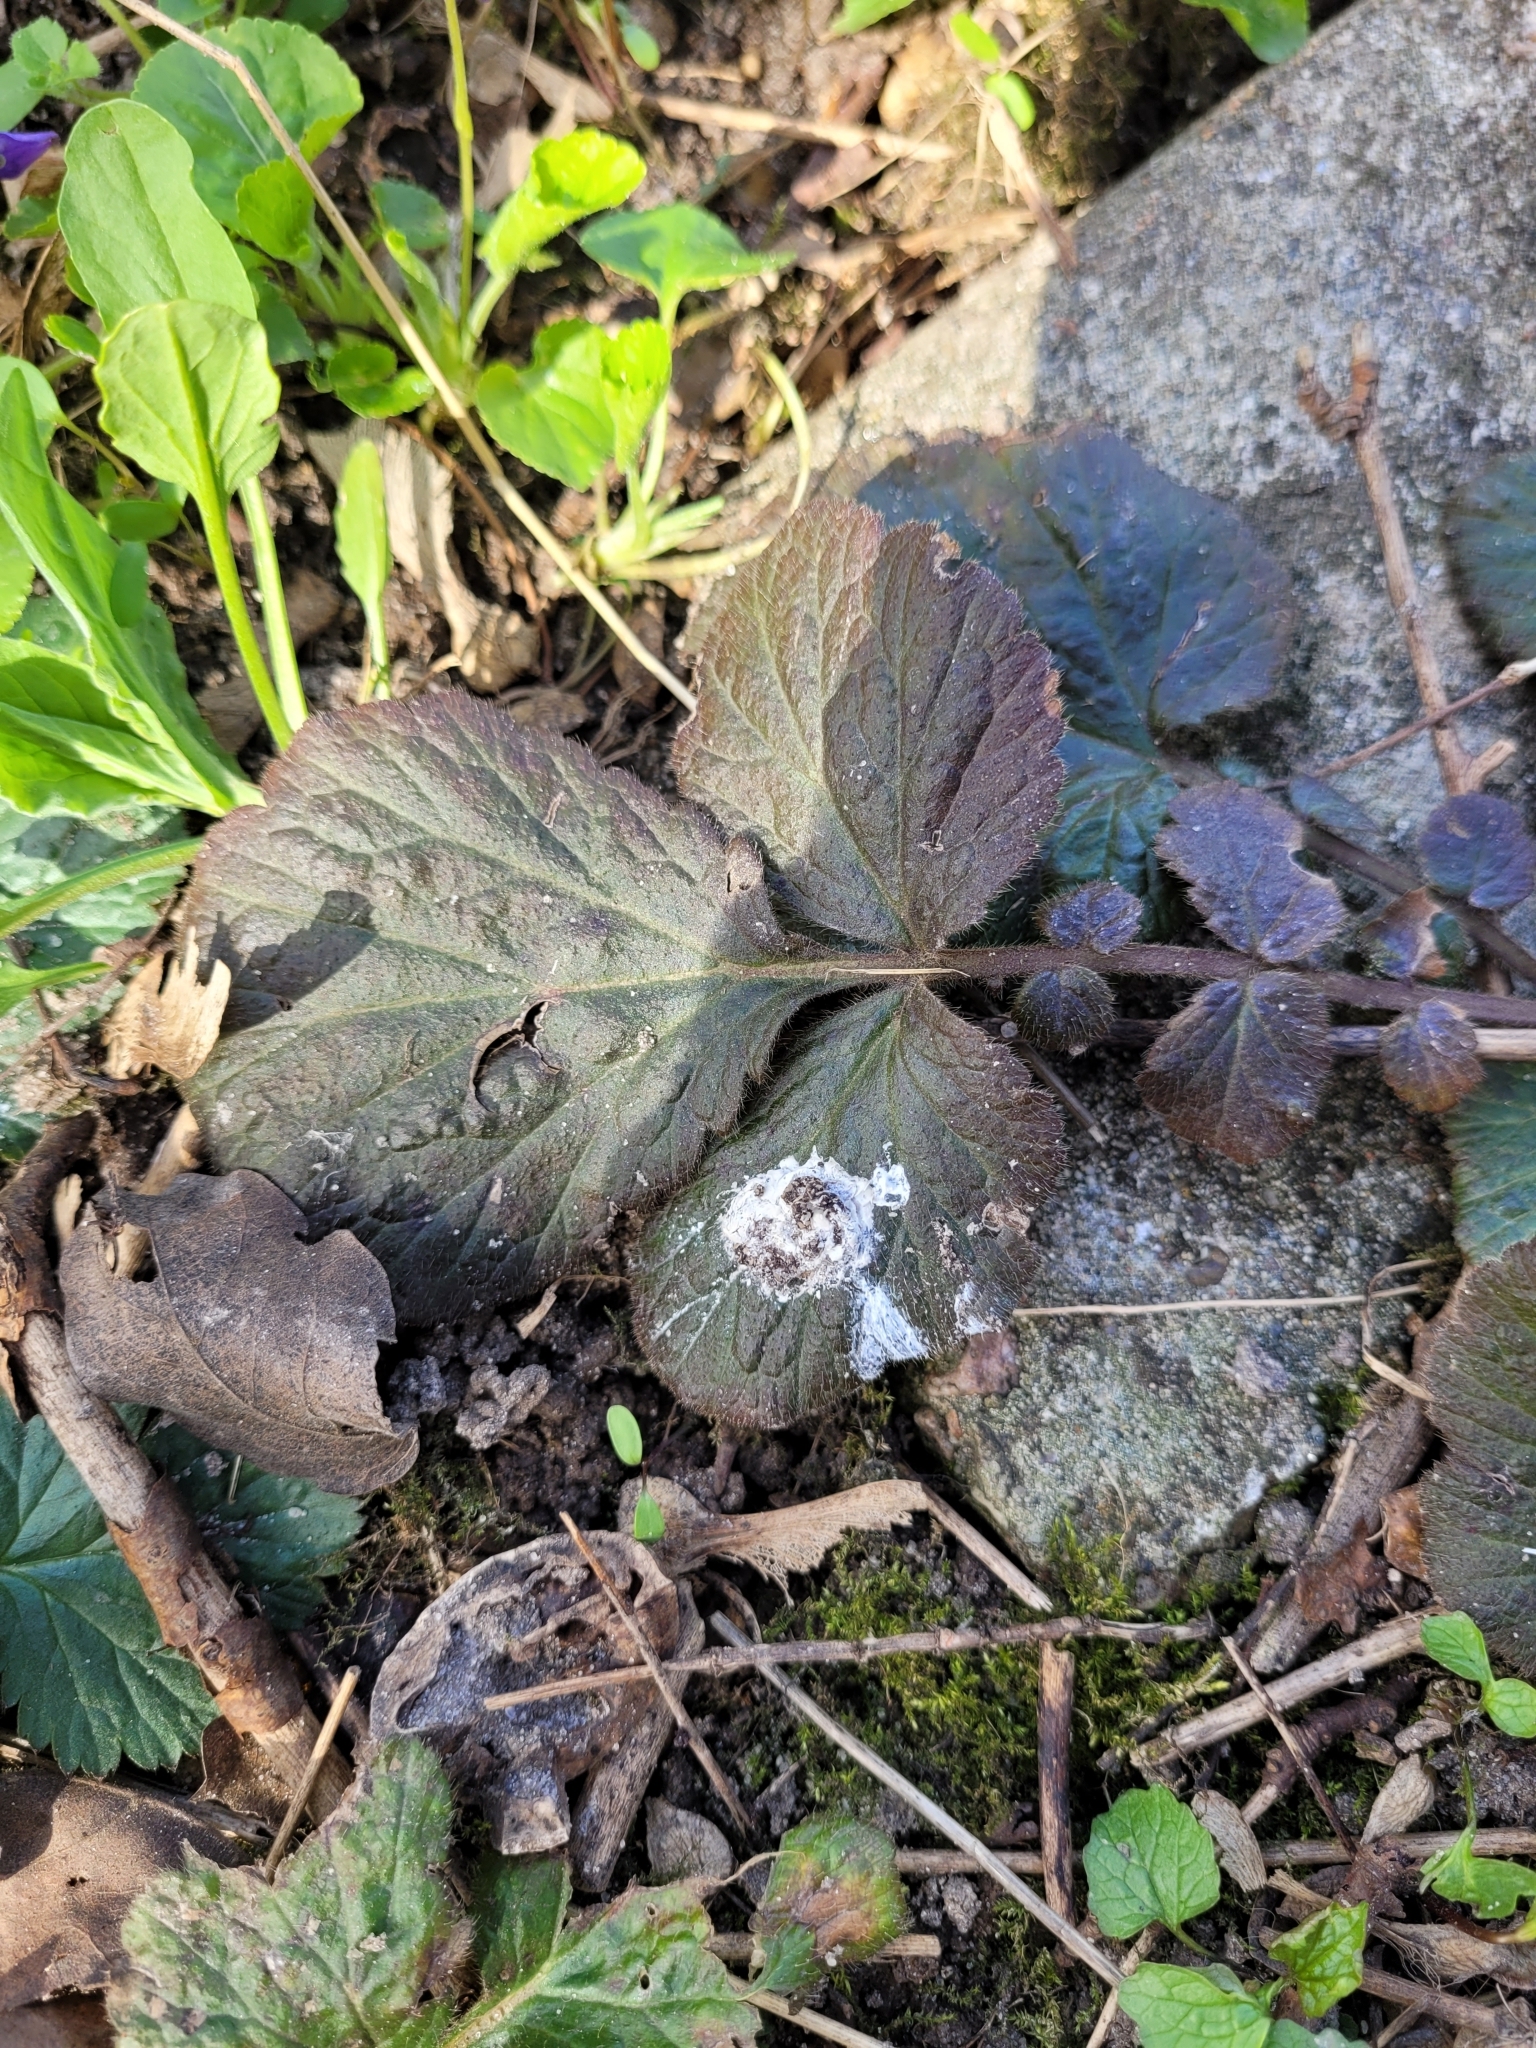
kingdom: Plantae
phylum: Tracheophyta
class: Magnoliopsida
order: Rosales
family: Rosaceae
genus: Geum
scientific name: Geum urbanum
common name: Wood avens
